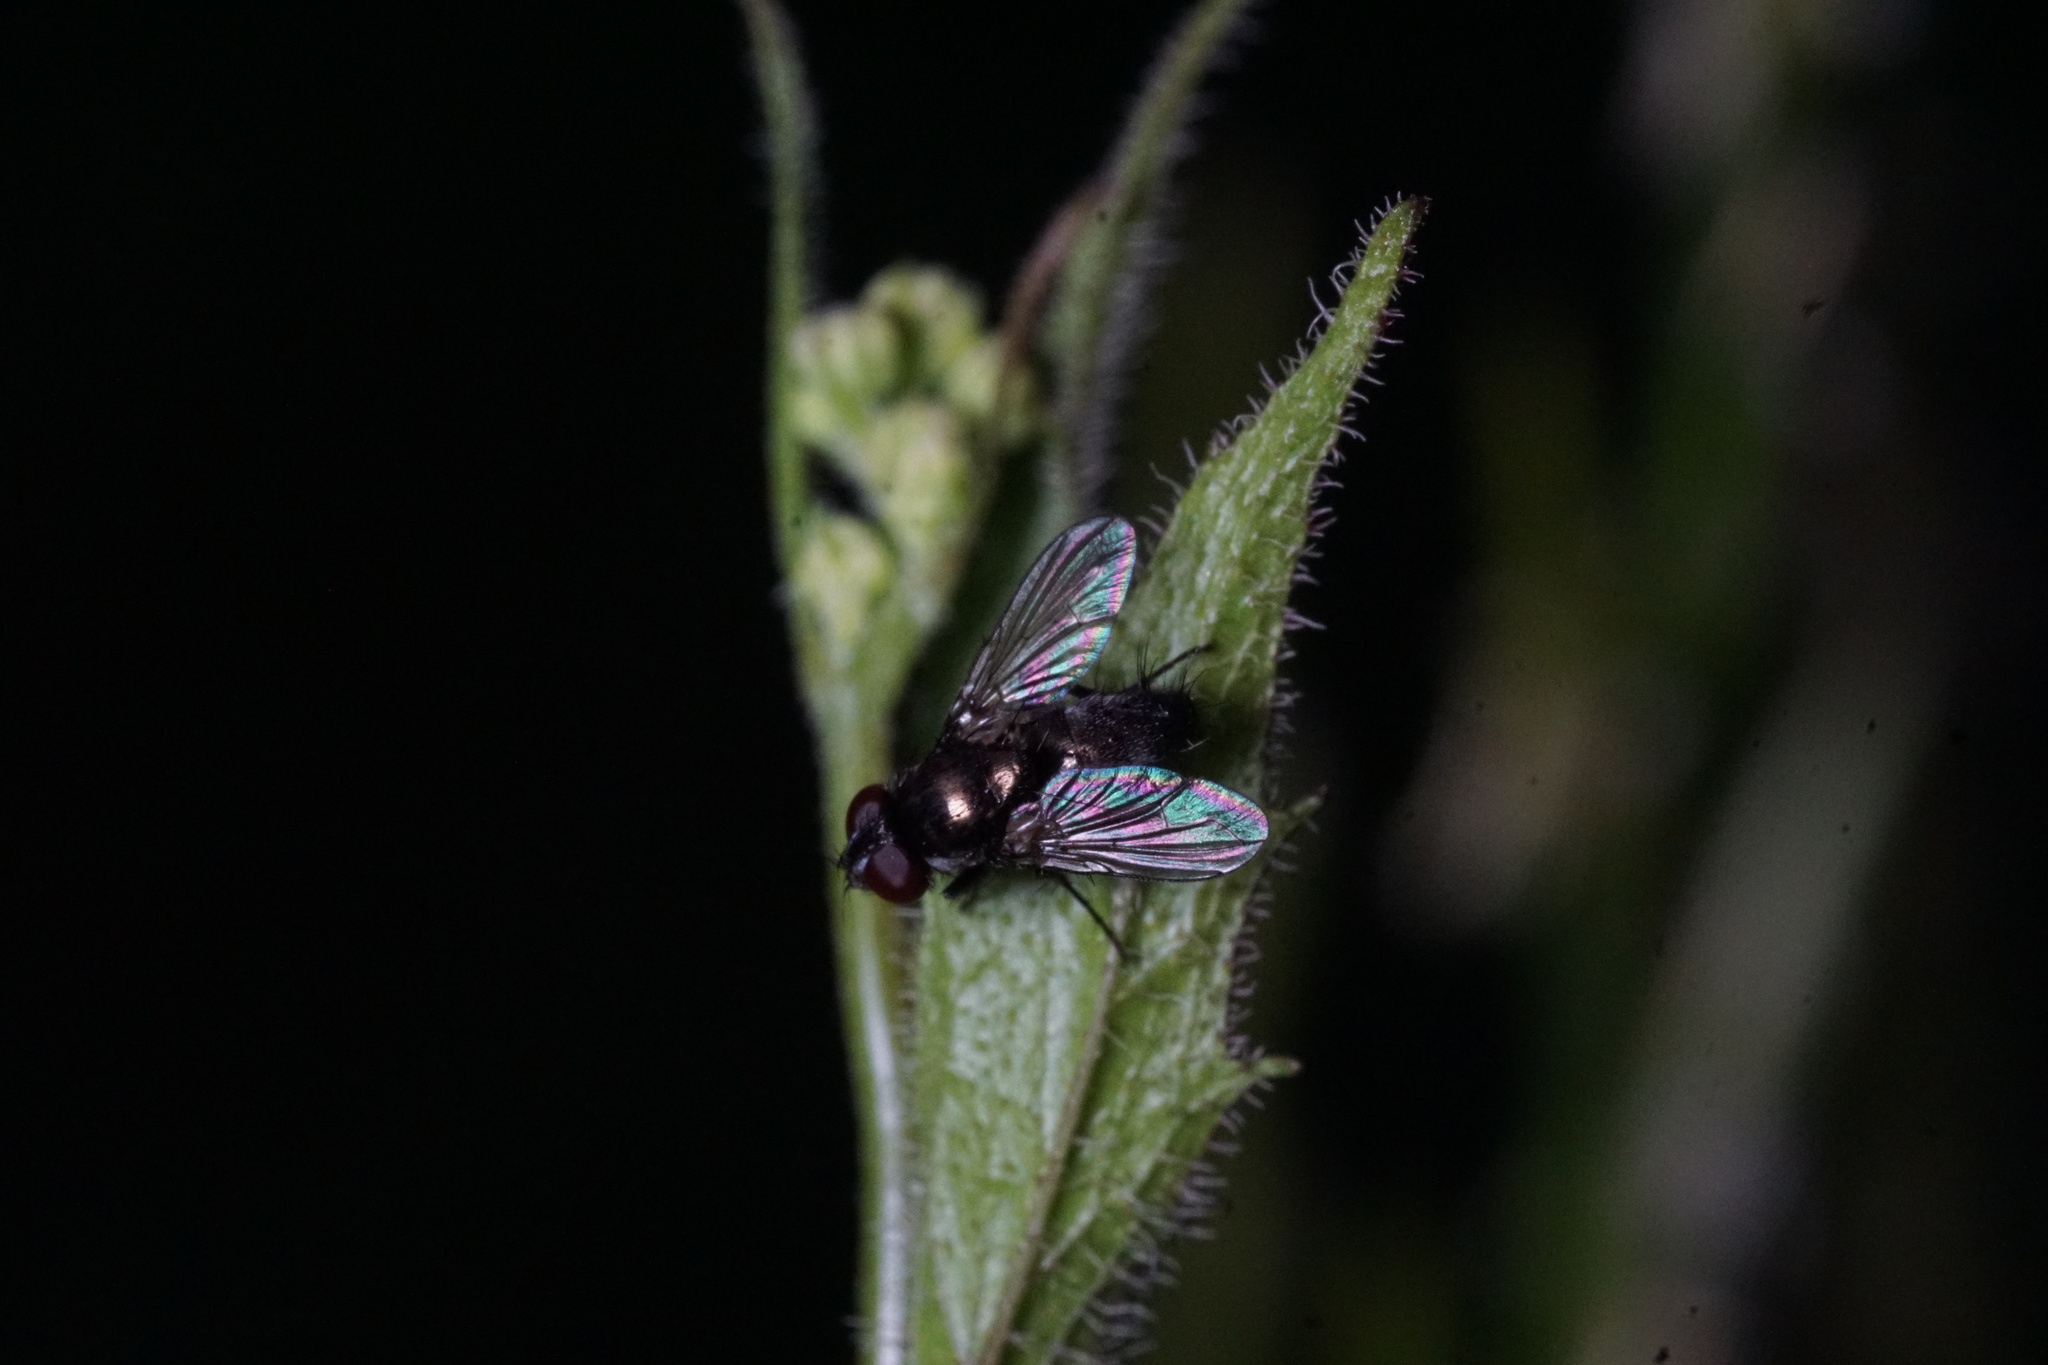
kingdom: Animalia
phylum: Arthropoda
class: Insecta
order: Diptera
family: Calliphoridae
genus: Rhinophora
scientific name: Rhinophora lepida
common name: Pouting woodlouse-fly
